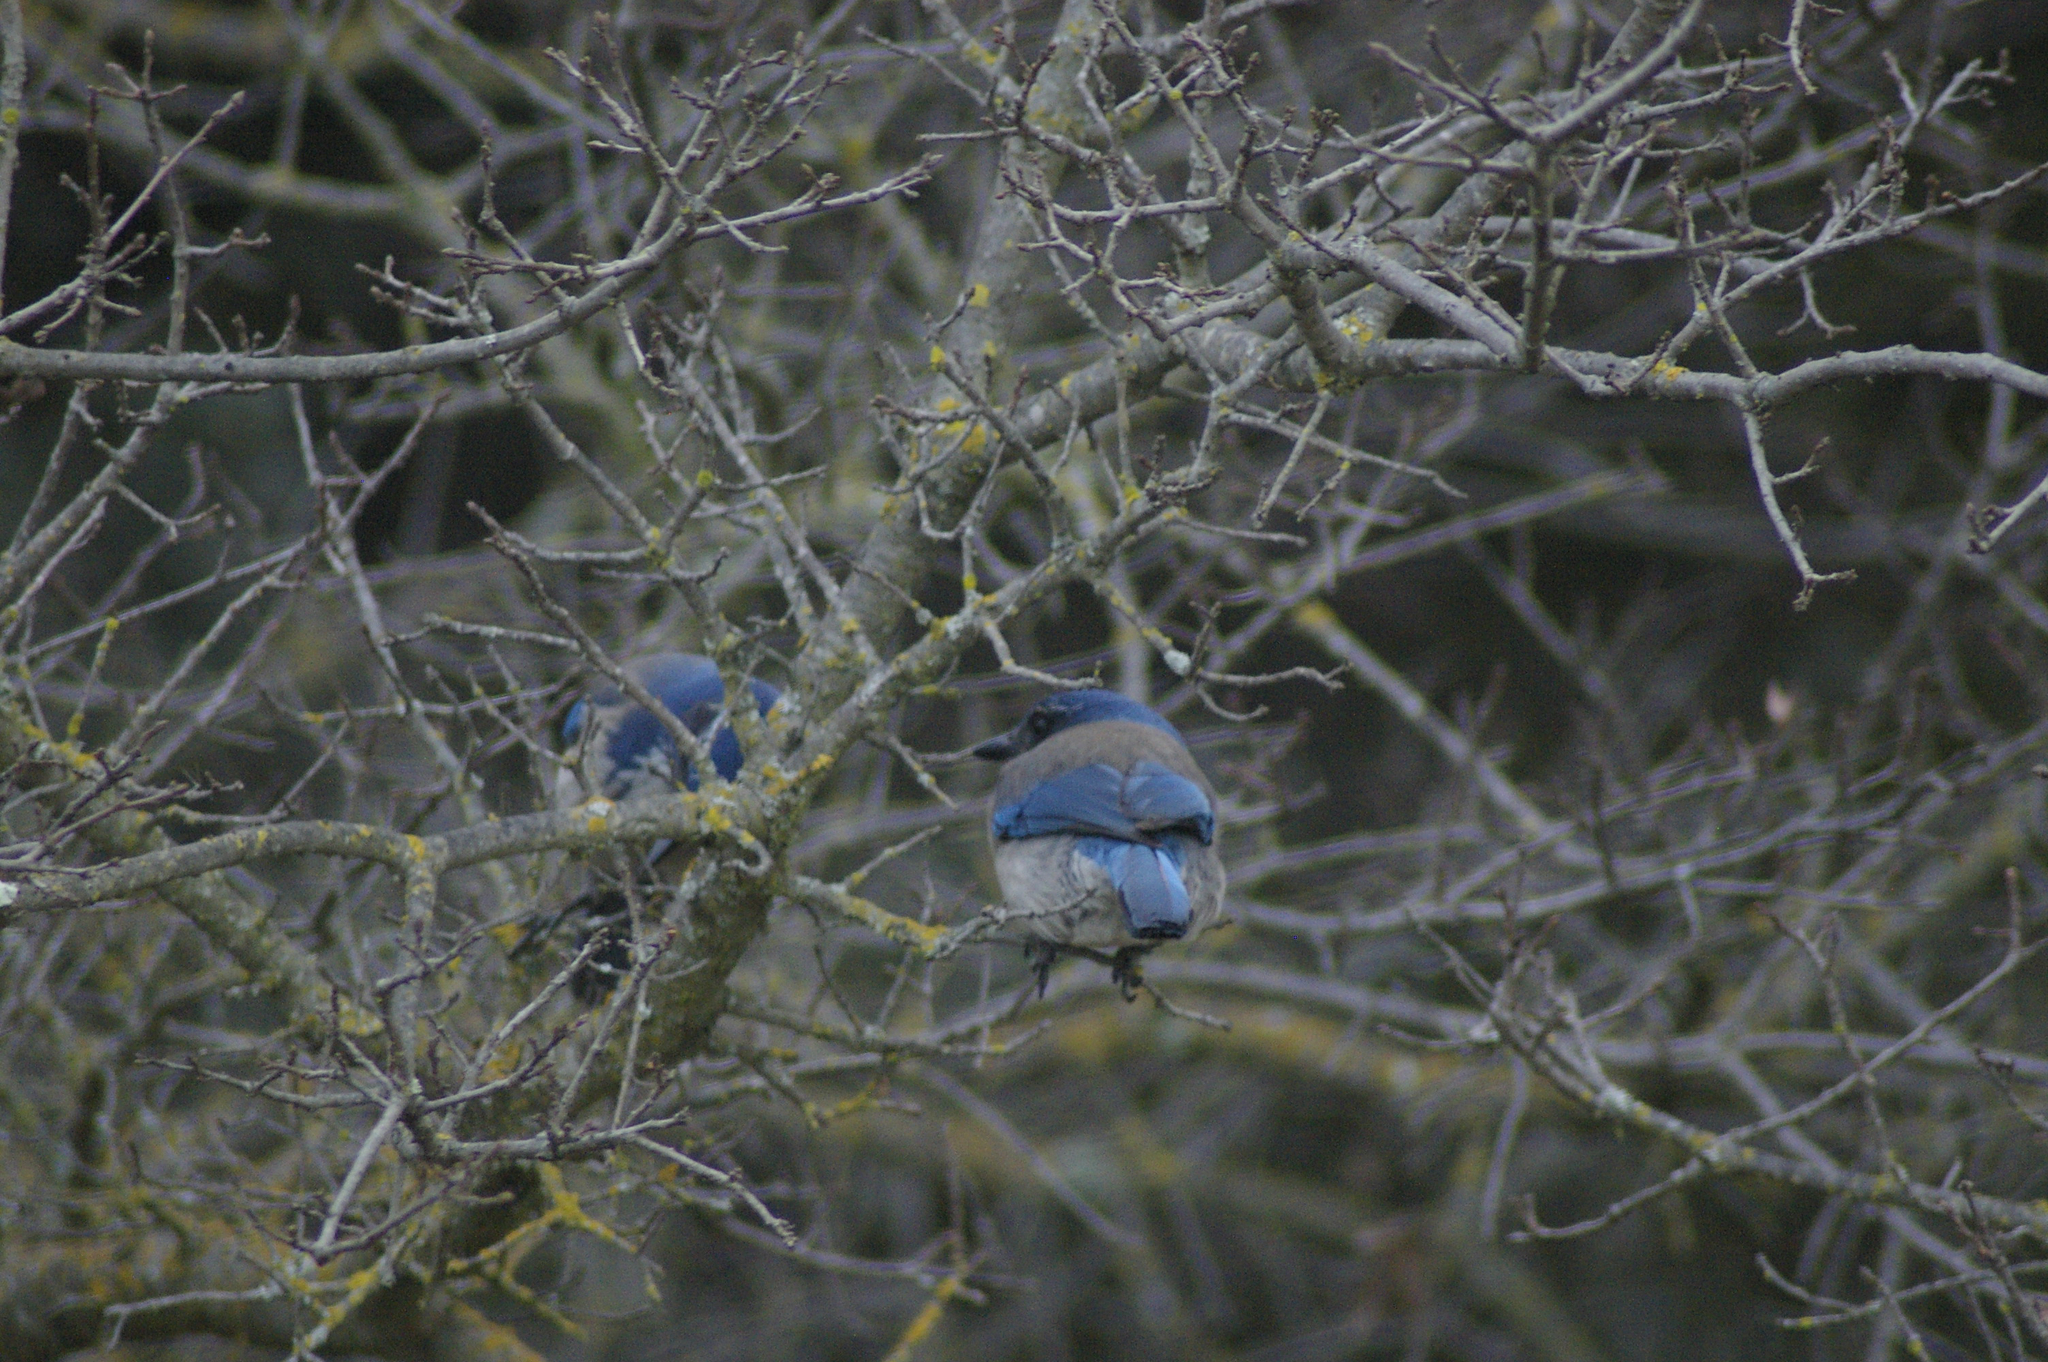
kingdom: Animalia
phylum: Chordata
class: Aves
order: Passeriformes
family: Corvidae
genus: Aphelocoma
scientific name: Aphelocoma californica
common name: California scrub-jay
